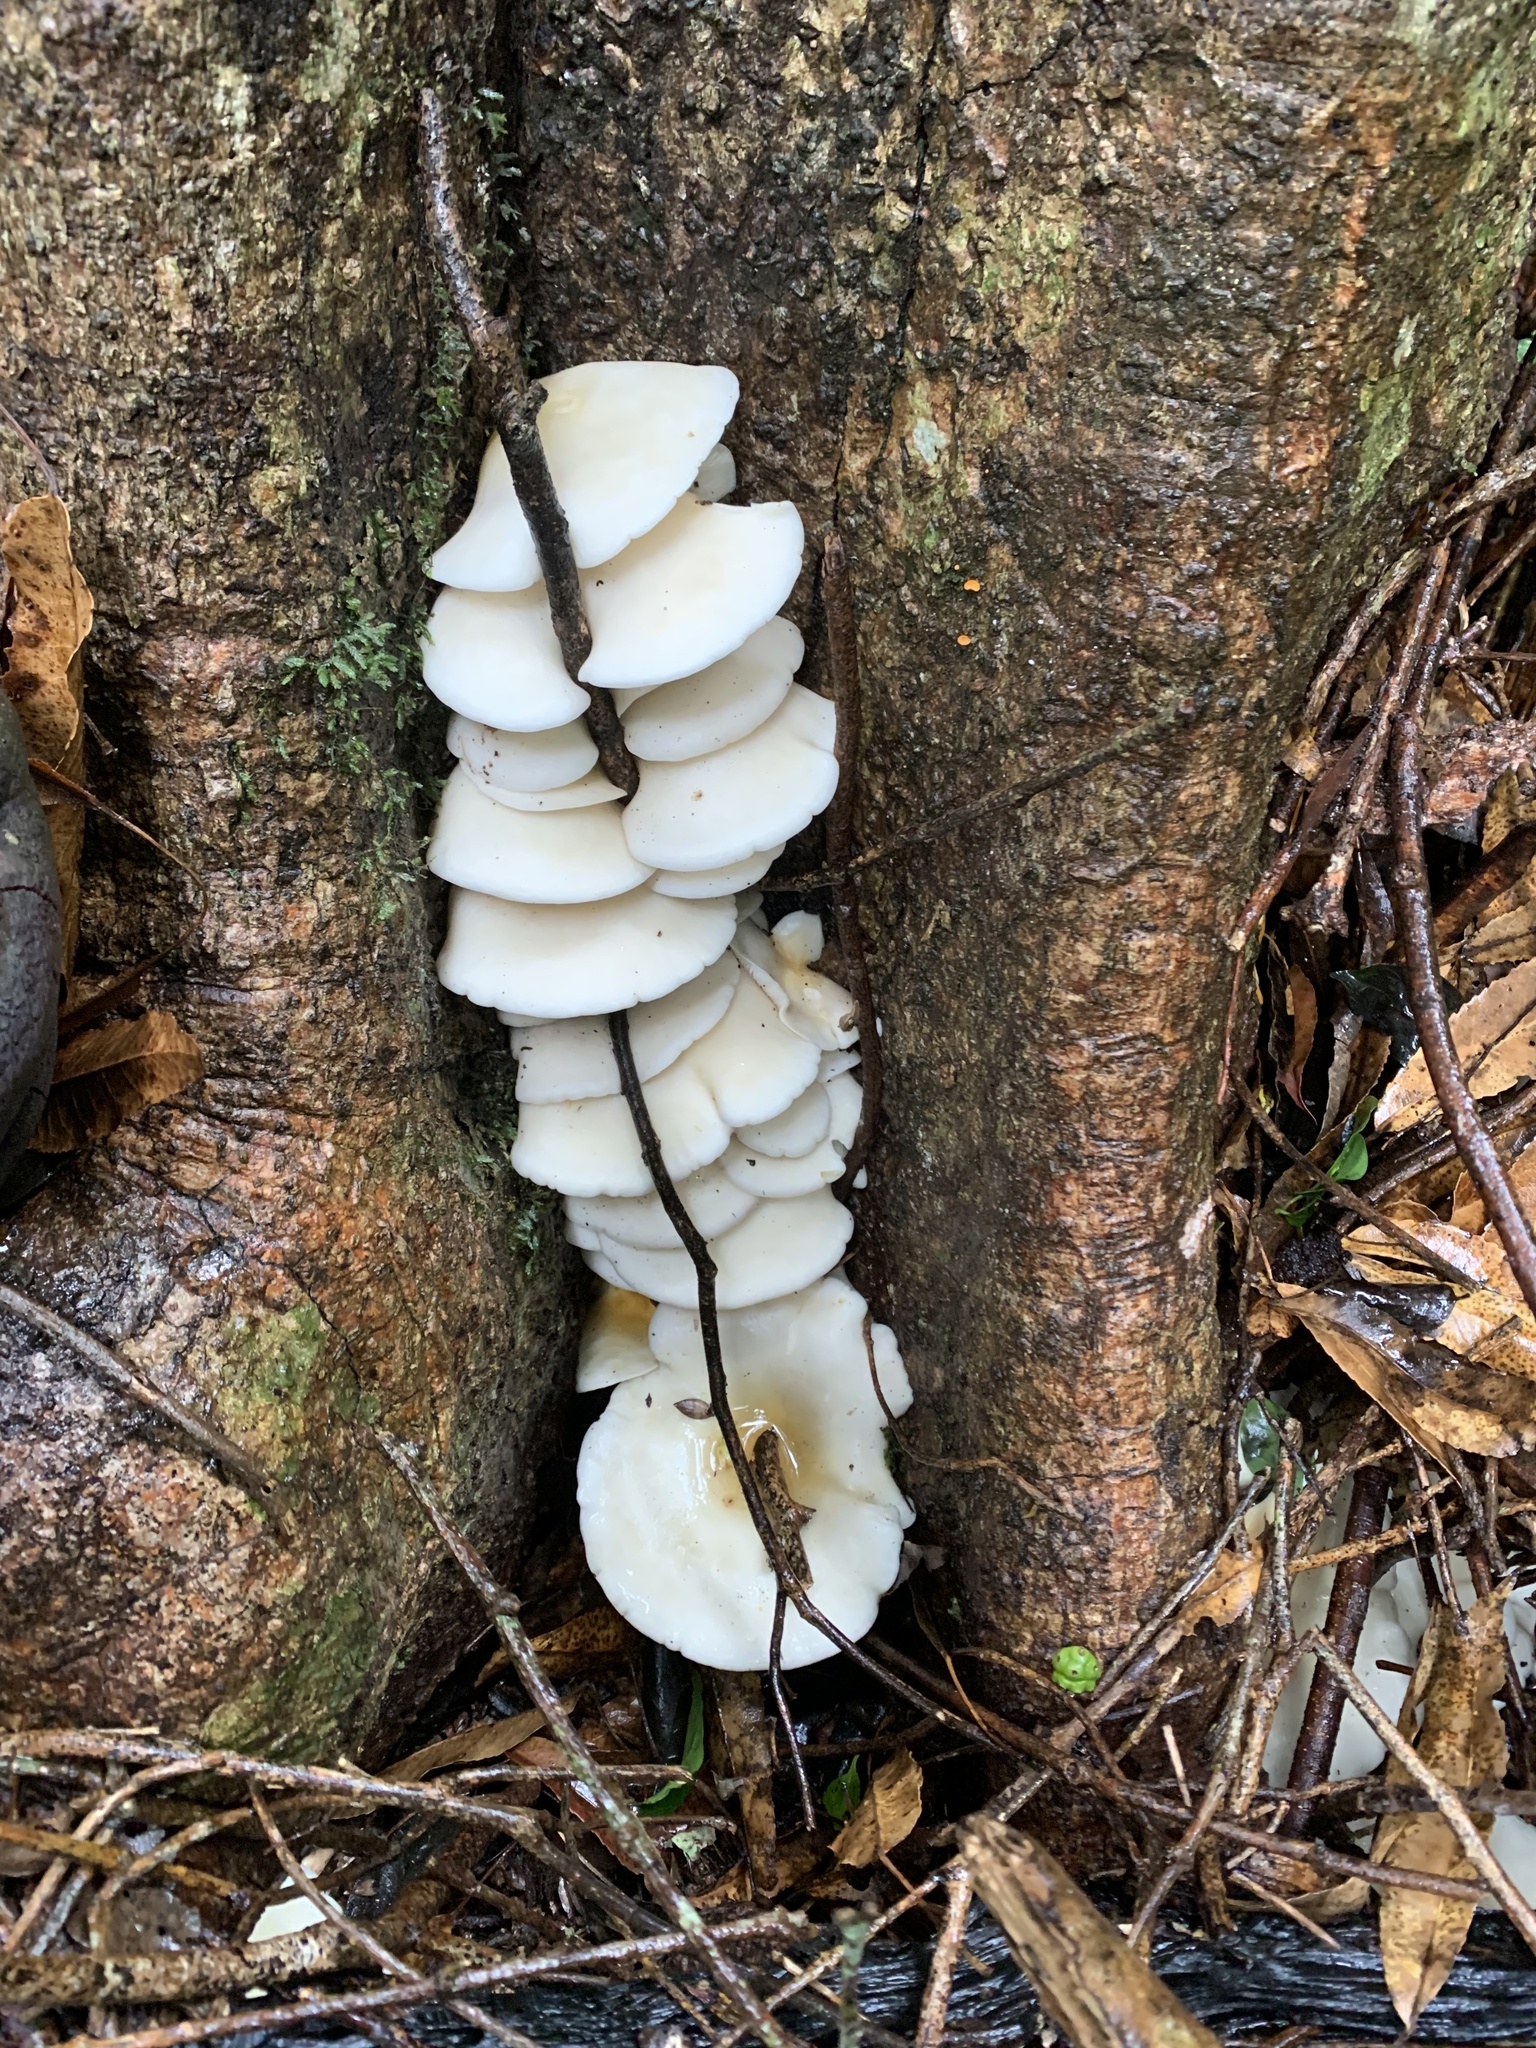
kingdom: Fungi
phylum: Basidiomycota
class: Agaricomycetes
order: Agaricales
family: Omphalotaceae
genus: Omphalotus
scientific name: Omphalotus nidiformis
